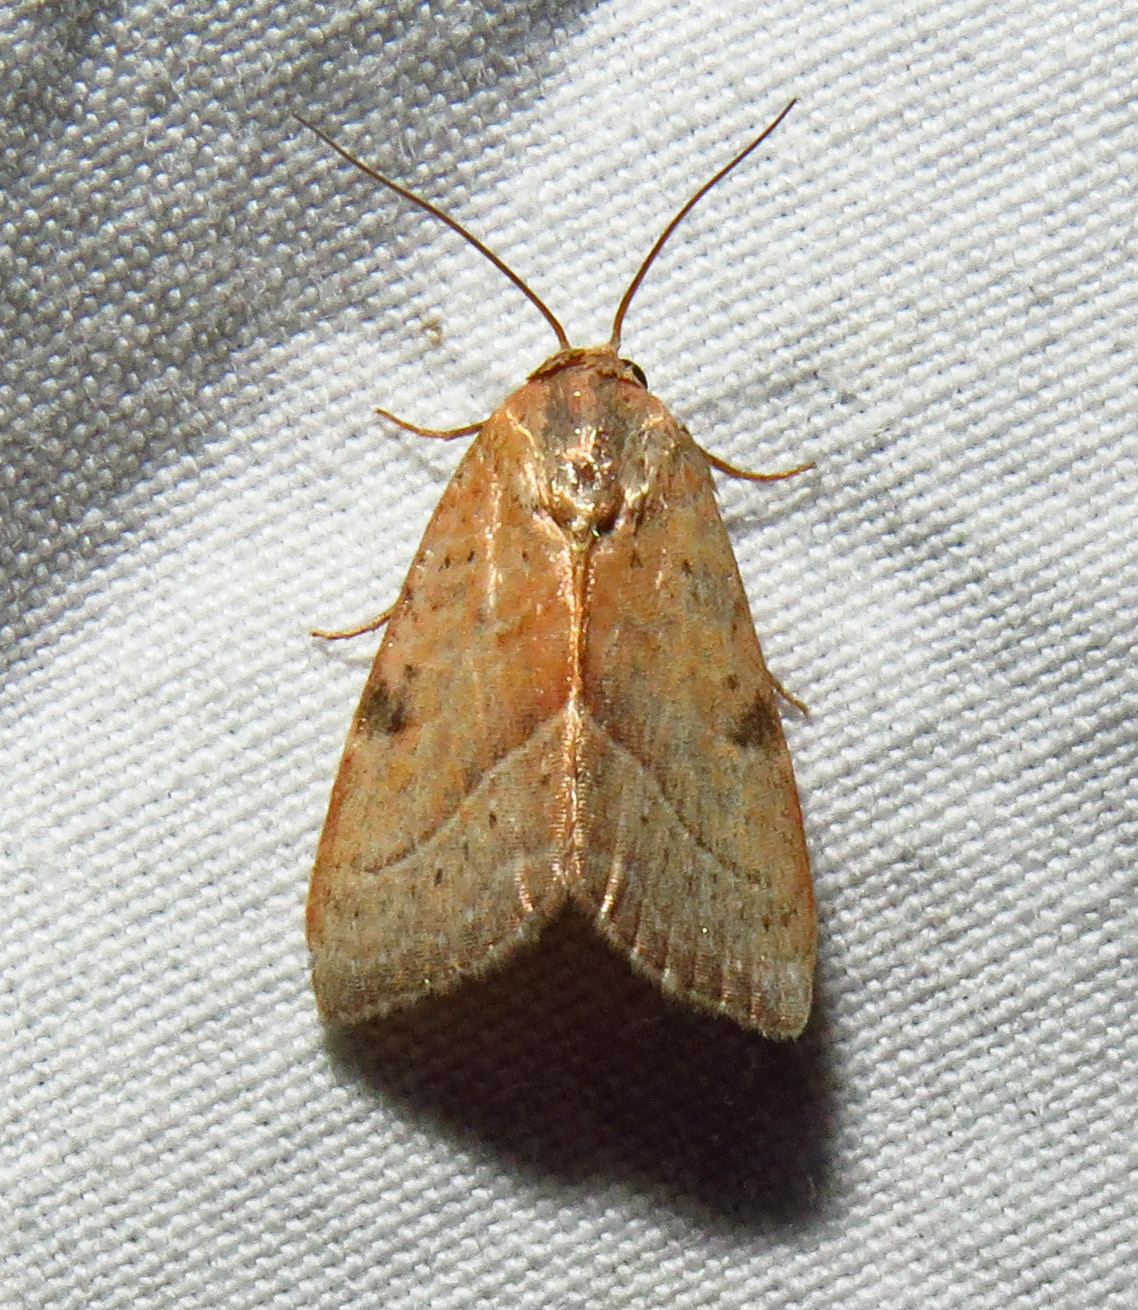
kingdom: Animalia
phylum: Arthropoda
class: Insecta
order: Lepidoptera
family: Noctuidae
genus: Galgula
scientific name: Galgula partita
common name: Wedgeling
